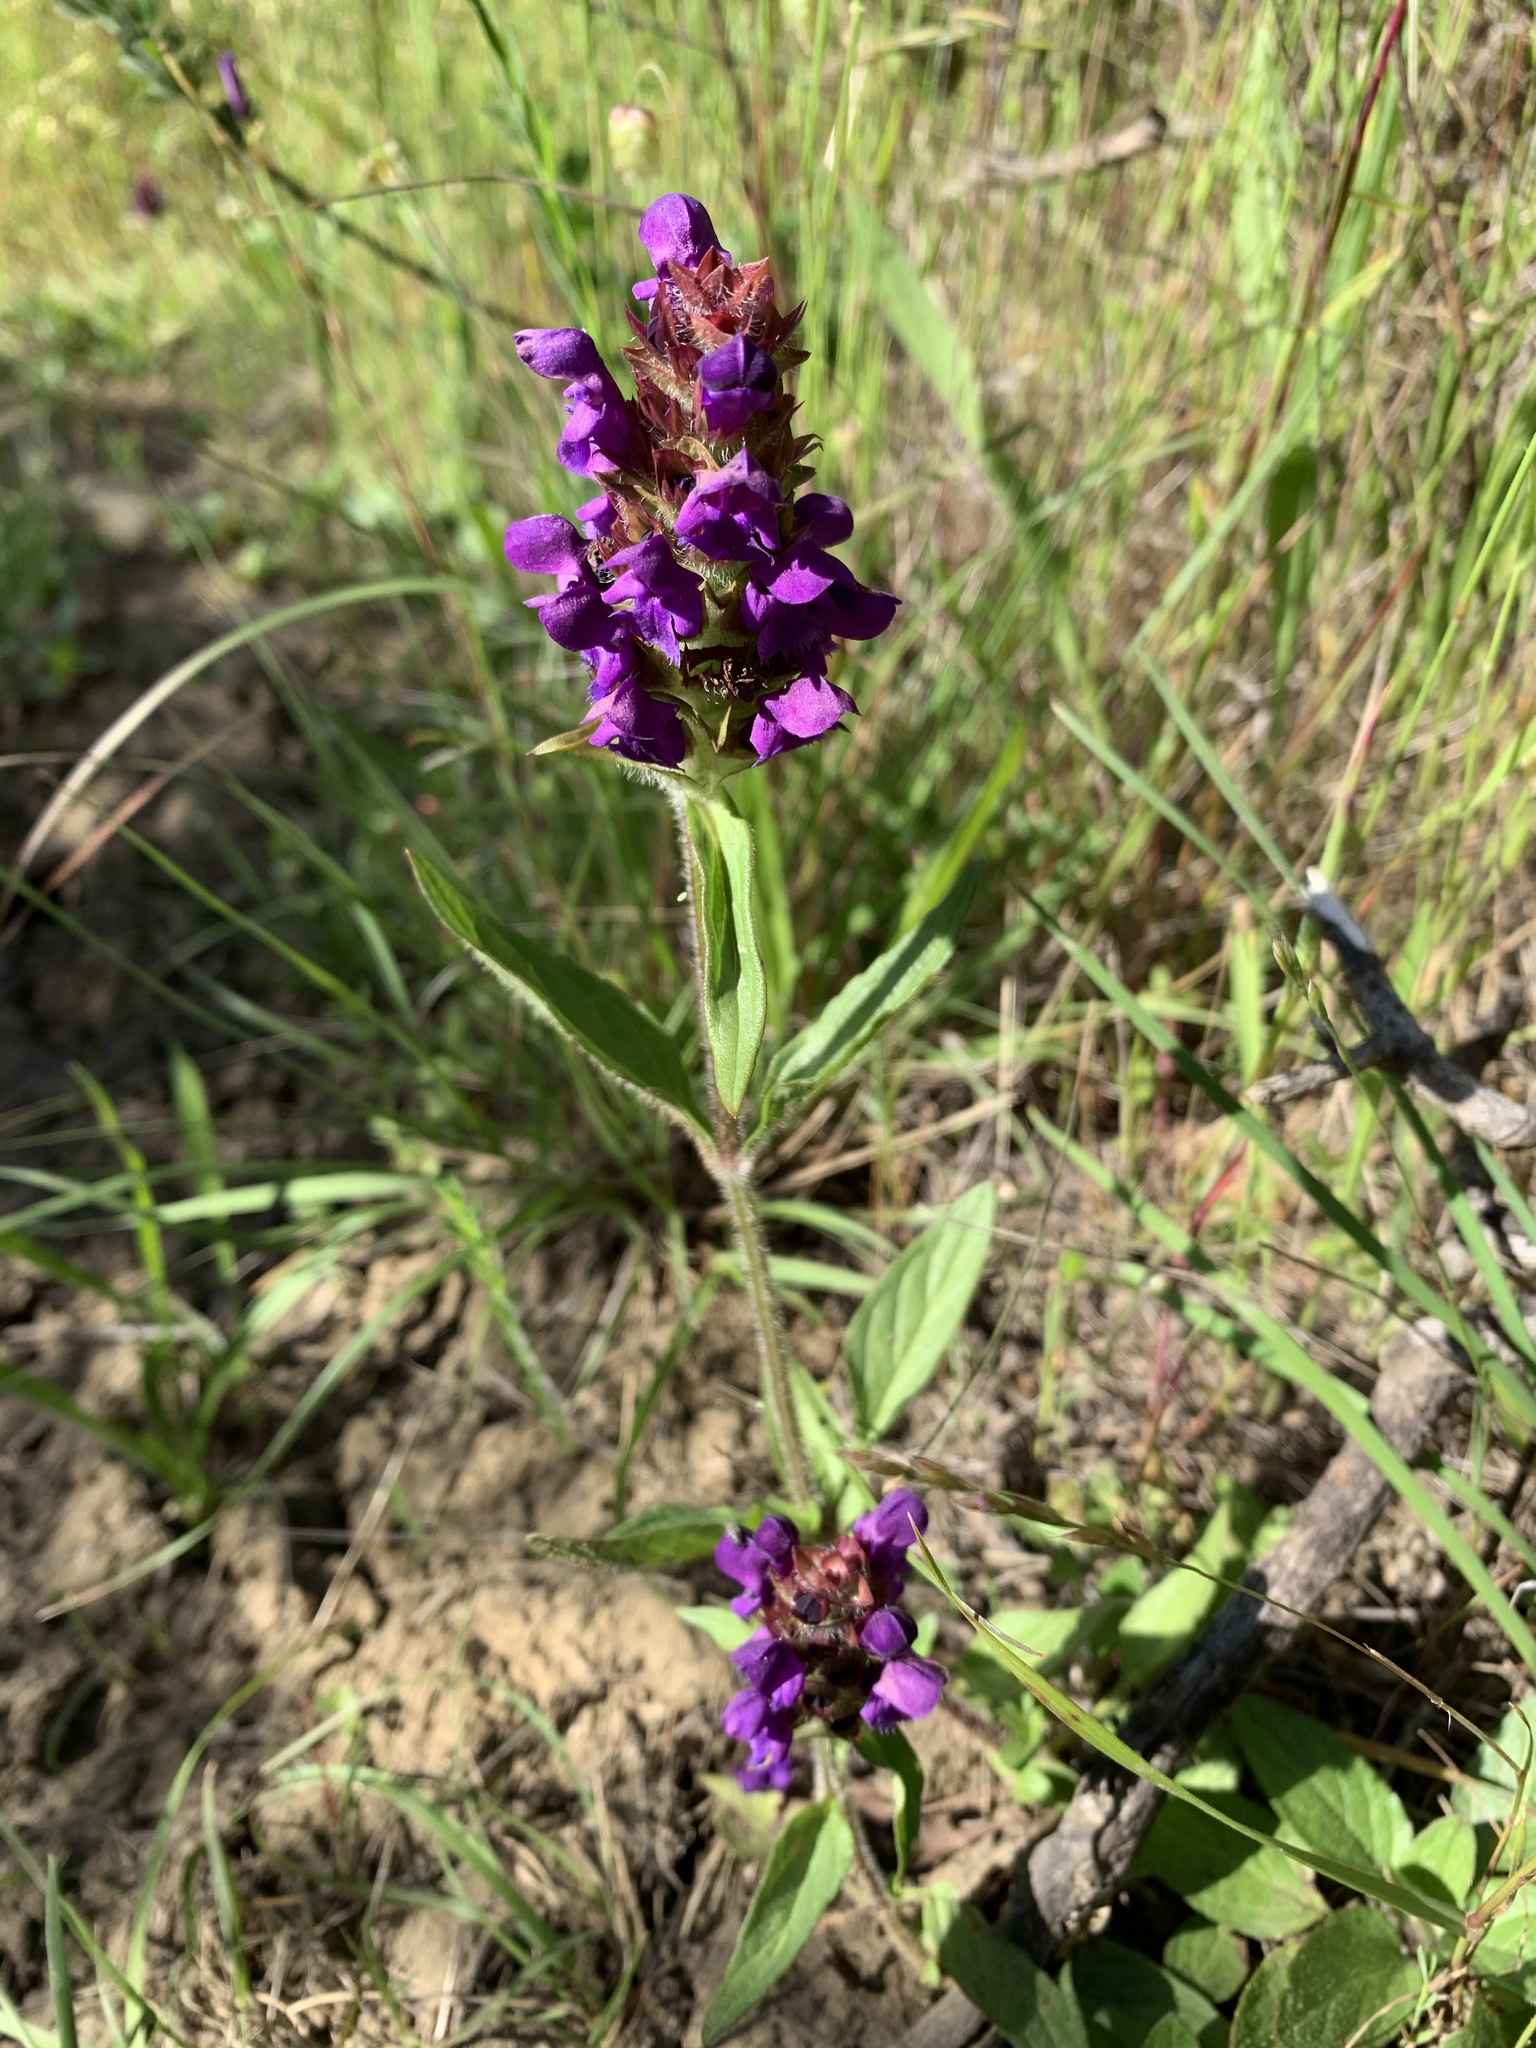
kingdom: Plantae
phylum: Tracheophyta
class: Magnoliopsida
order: Lamiales
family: Lamiaceae
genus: Prunella
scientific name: Prunella vulgaris
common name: Heal-all
